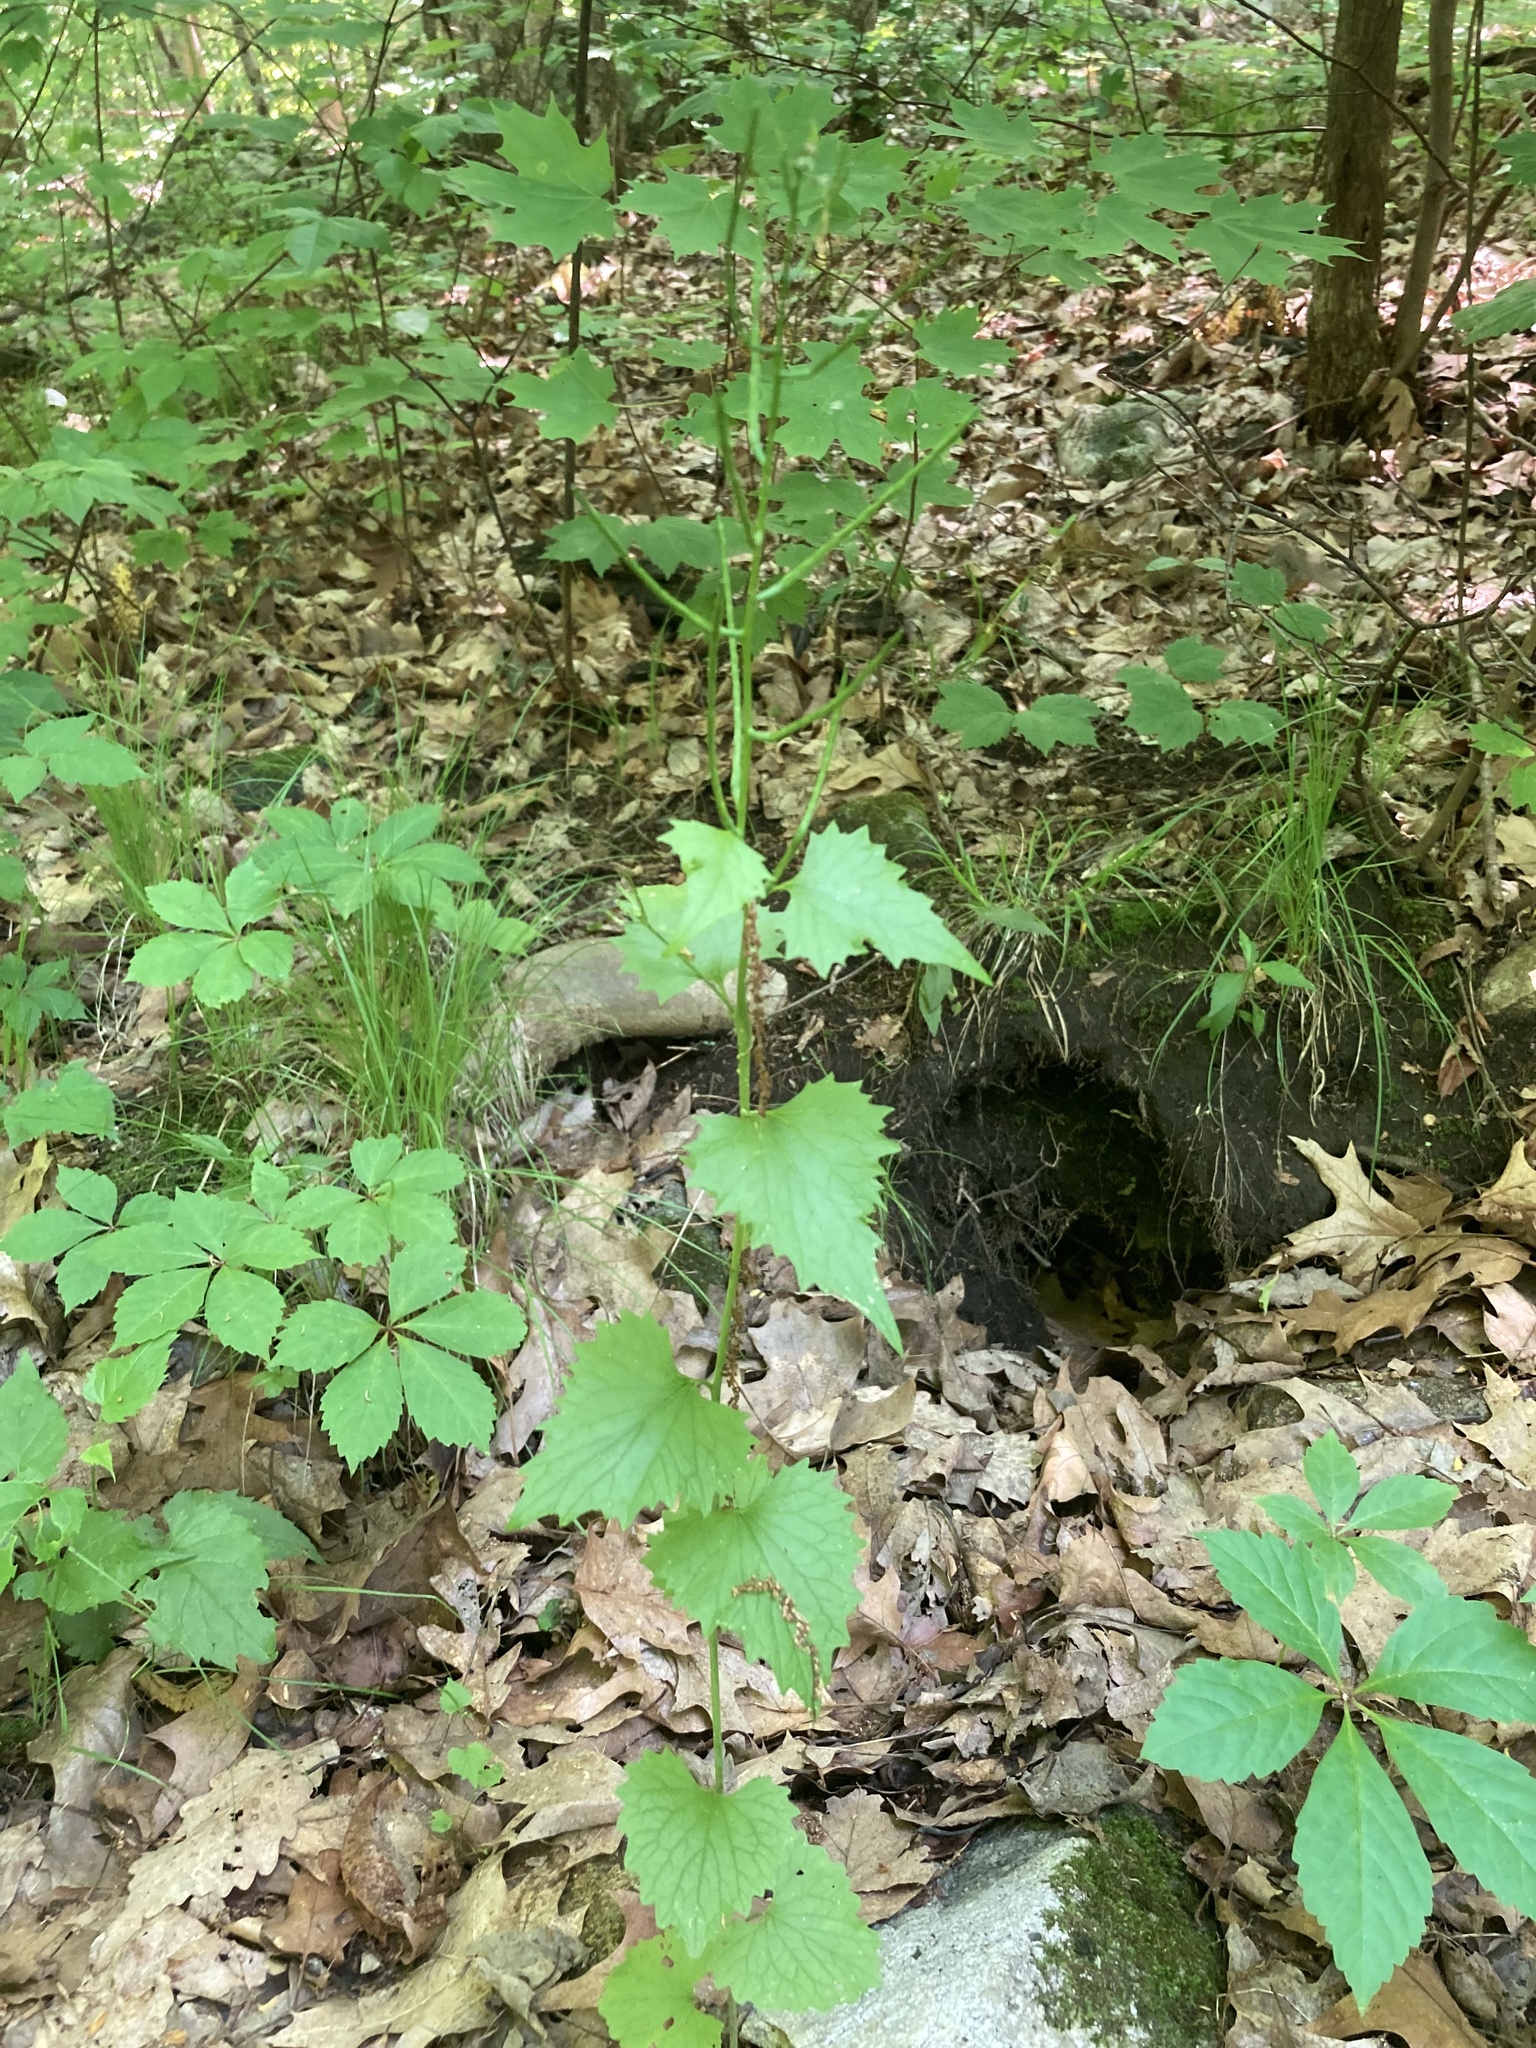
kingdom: Plantae
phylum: Tracheophyta
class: Magnoliopsida
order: Brassicales
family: Brassicaceae
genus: Alliaria
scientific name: Alliaria petiolata
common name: Garlic mustard
